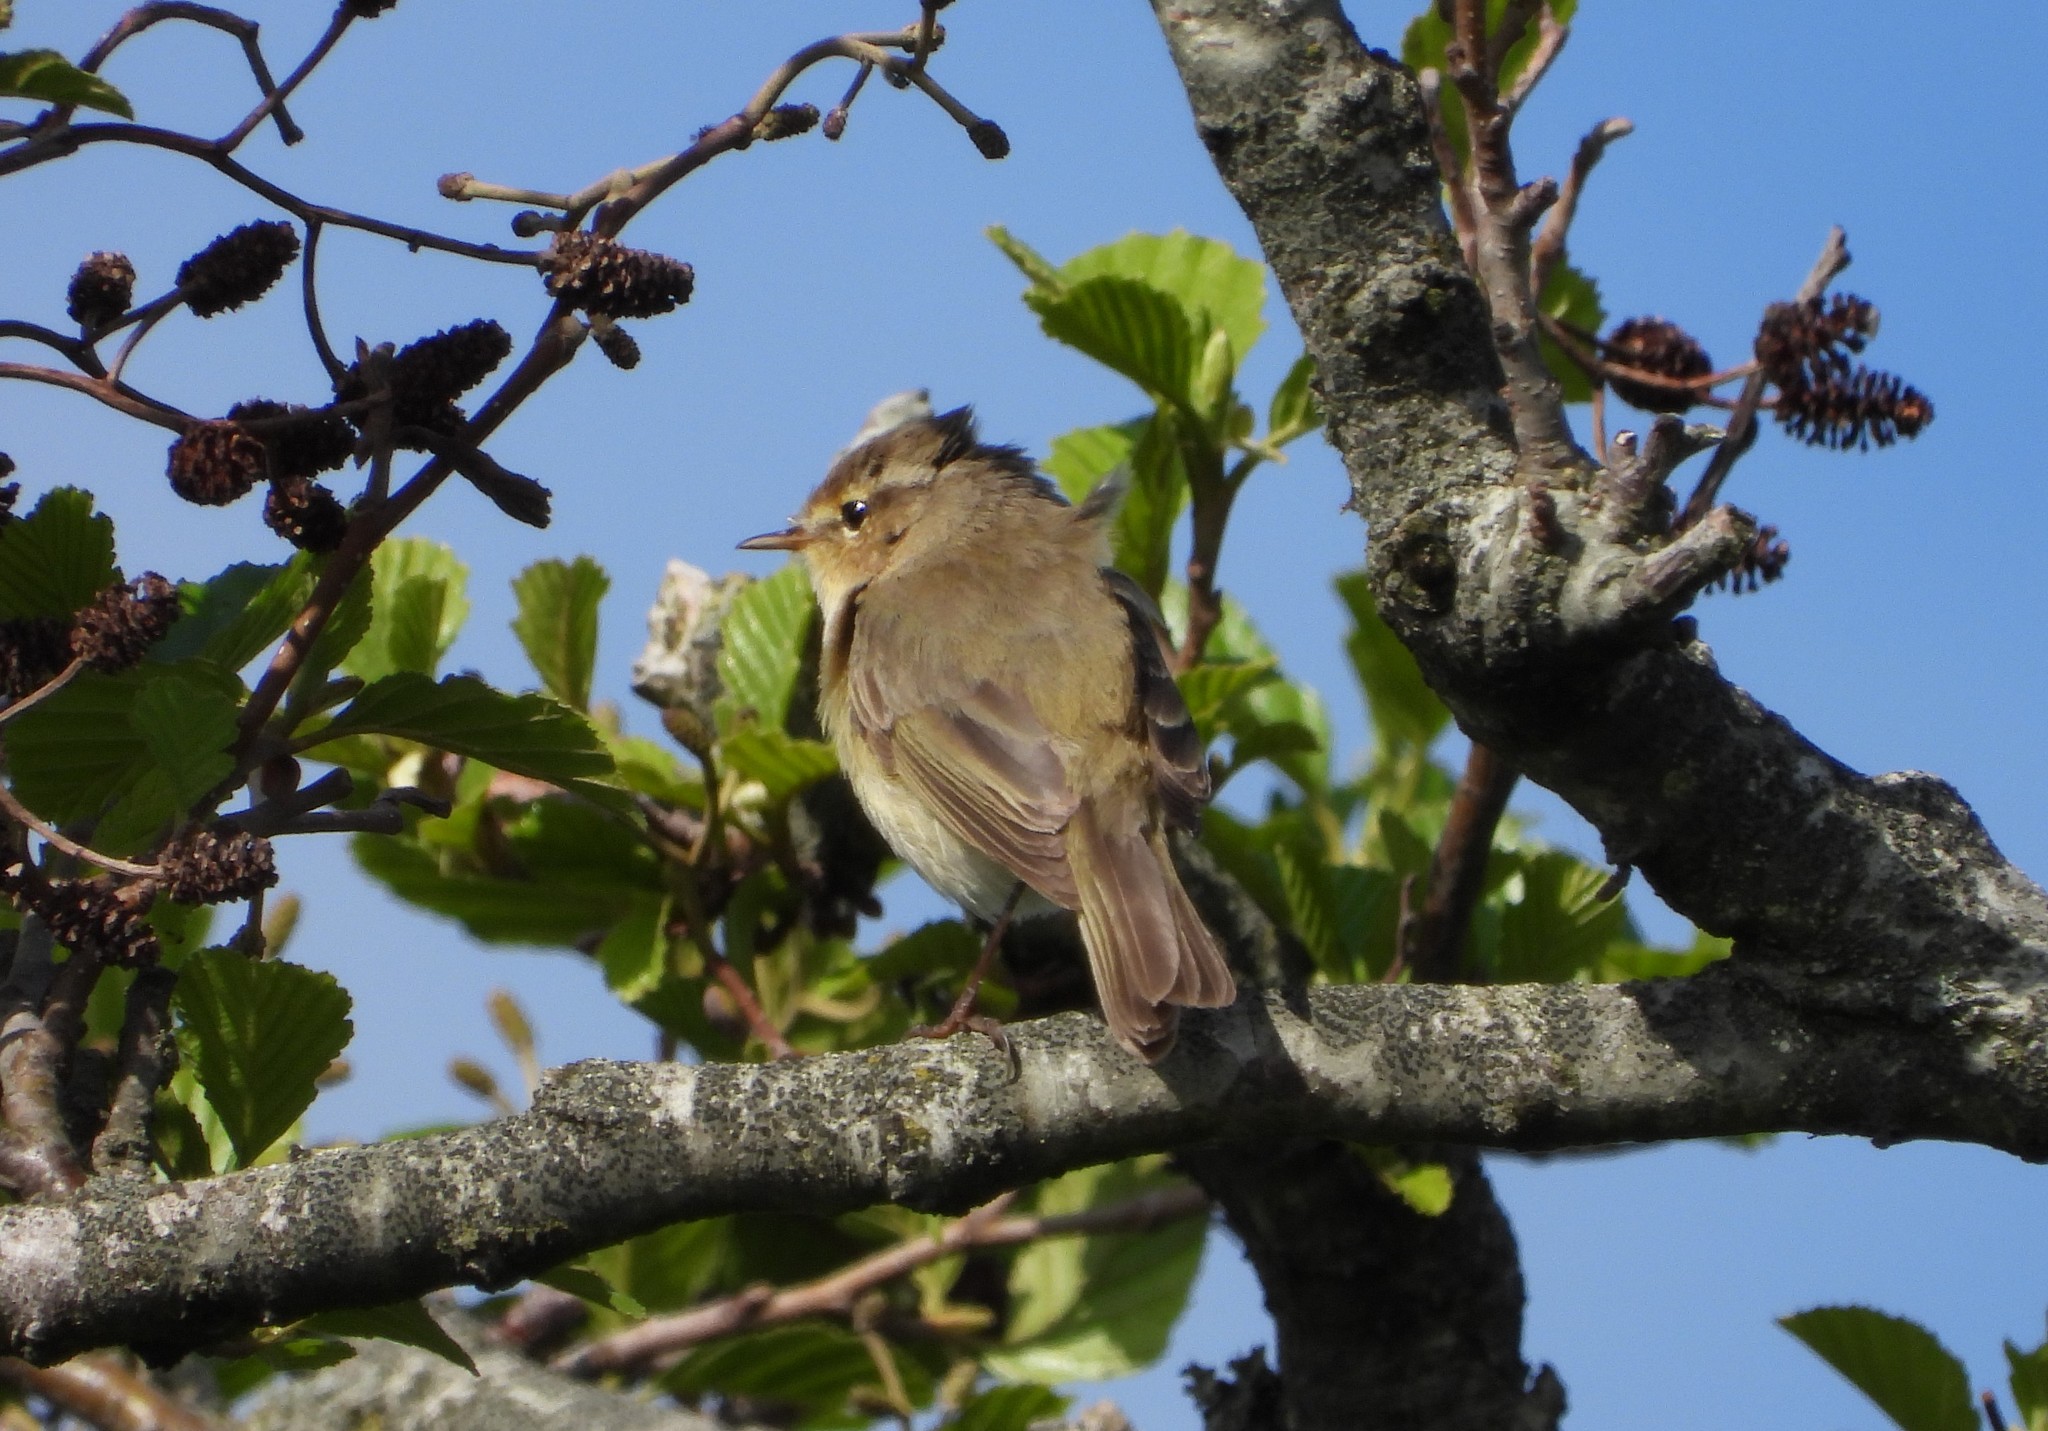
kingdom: Animalia
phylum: Chordata
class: Aves
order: Passeriformes
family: Phylloscopidae
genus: Phylloscopus
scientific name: Phylloscopus collybita
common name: Common chiffchaff
